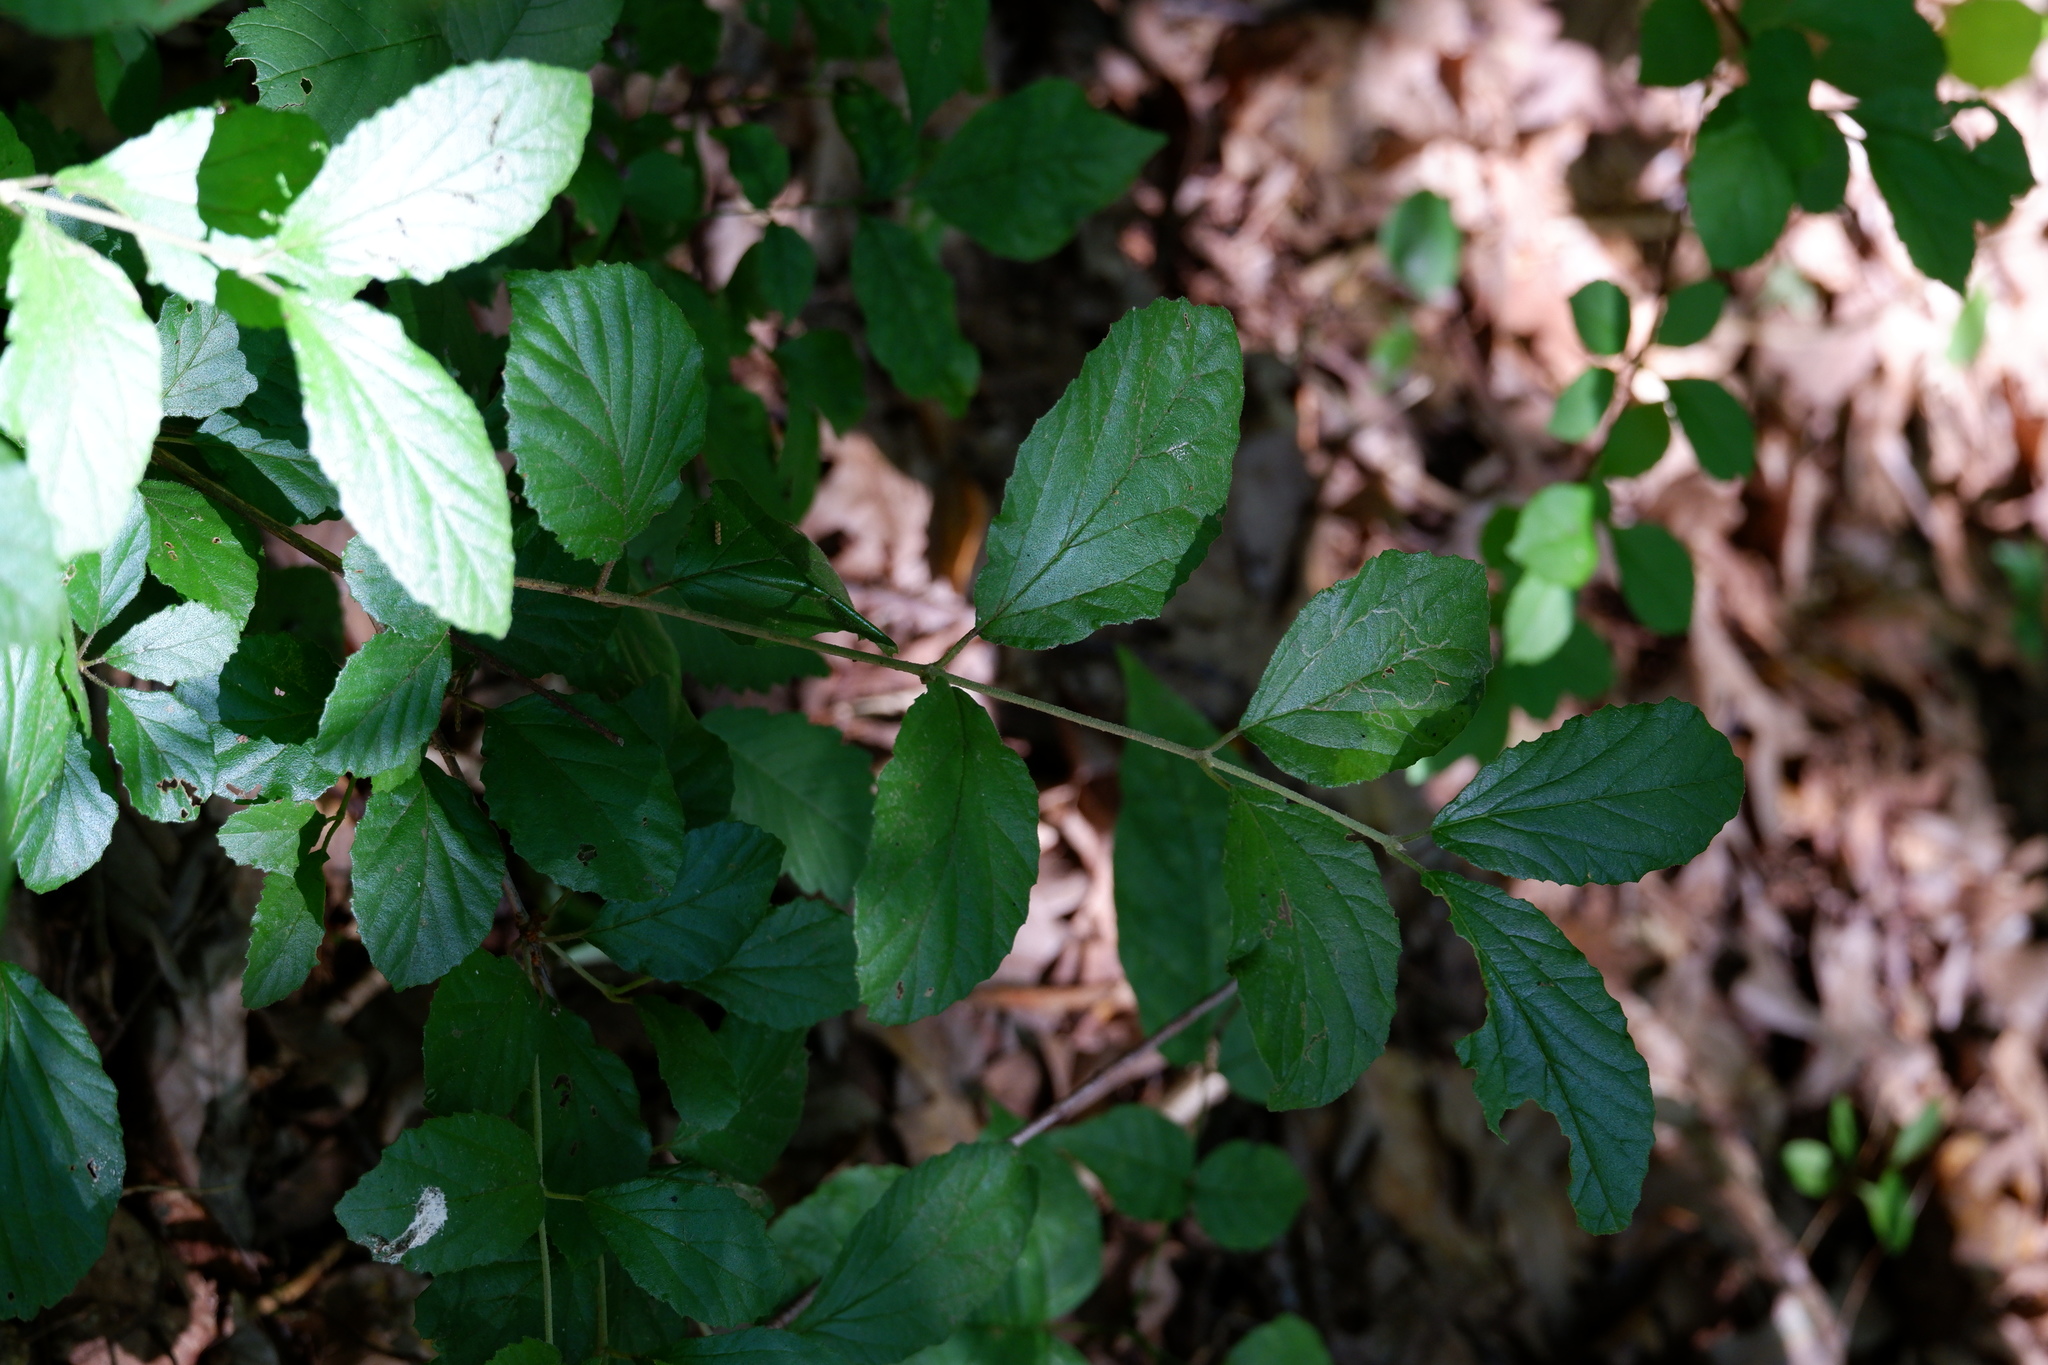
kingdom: Plantae
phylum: Tracheophyta
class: Magnoliopsida
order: Dipsacales
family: Viburnaceae
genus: Viburnum
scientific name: Viburnum dilatatum
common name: Linden arrowwood
